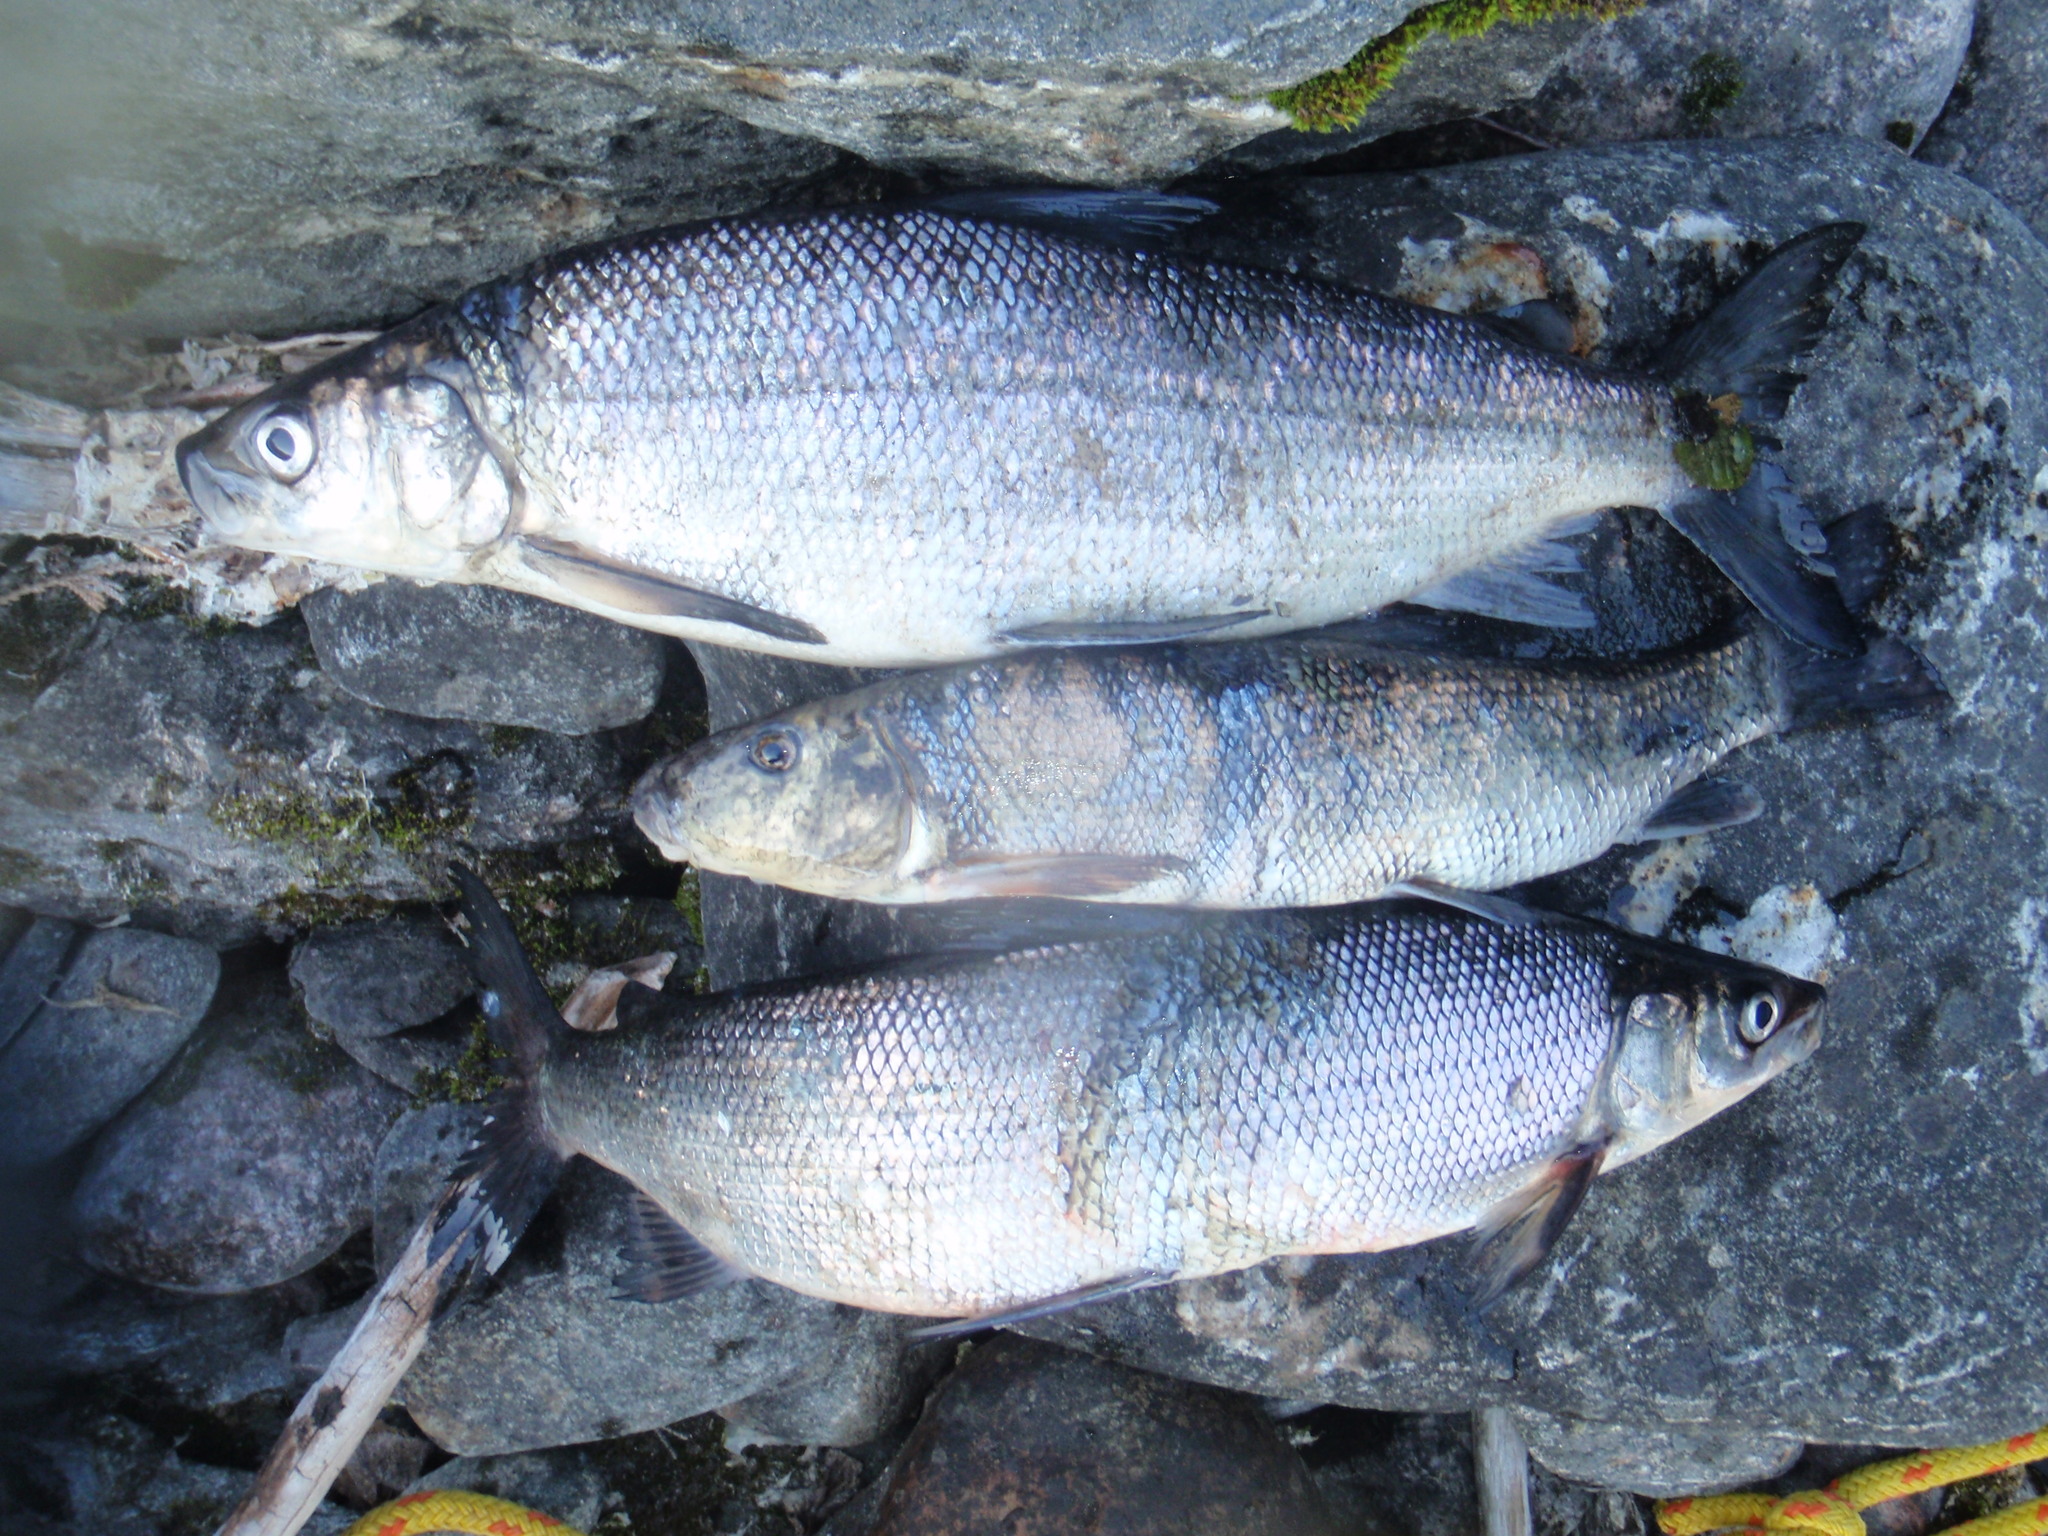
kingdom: Animalia
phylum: Chordata
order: Salmoniformes
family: Salmonidae
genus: Coregonus
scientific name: Coregonus clupeaformis
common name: Lake whitefish
